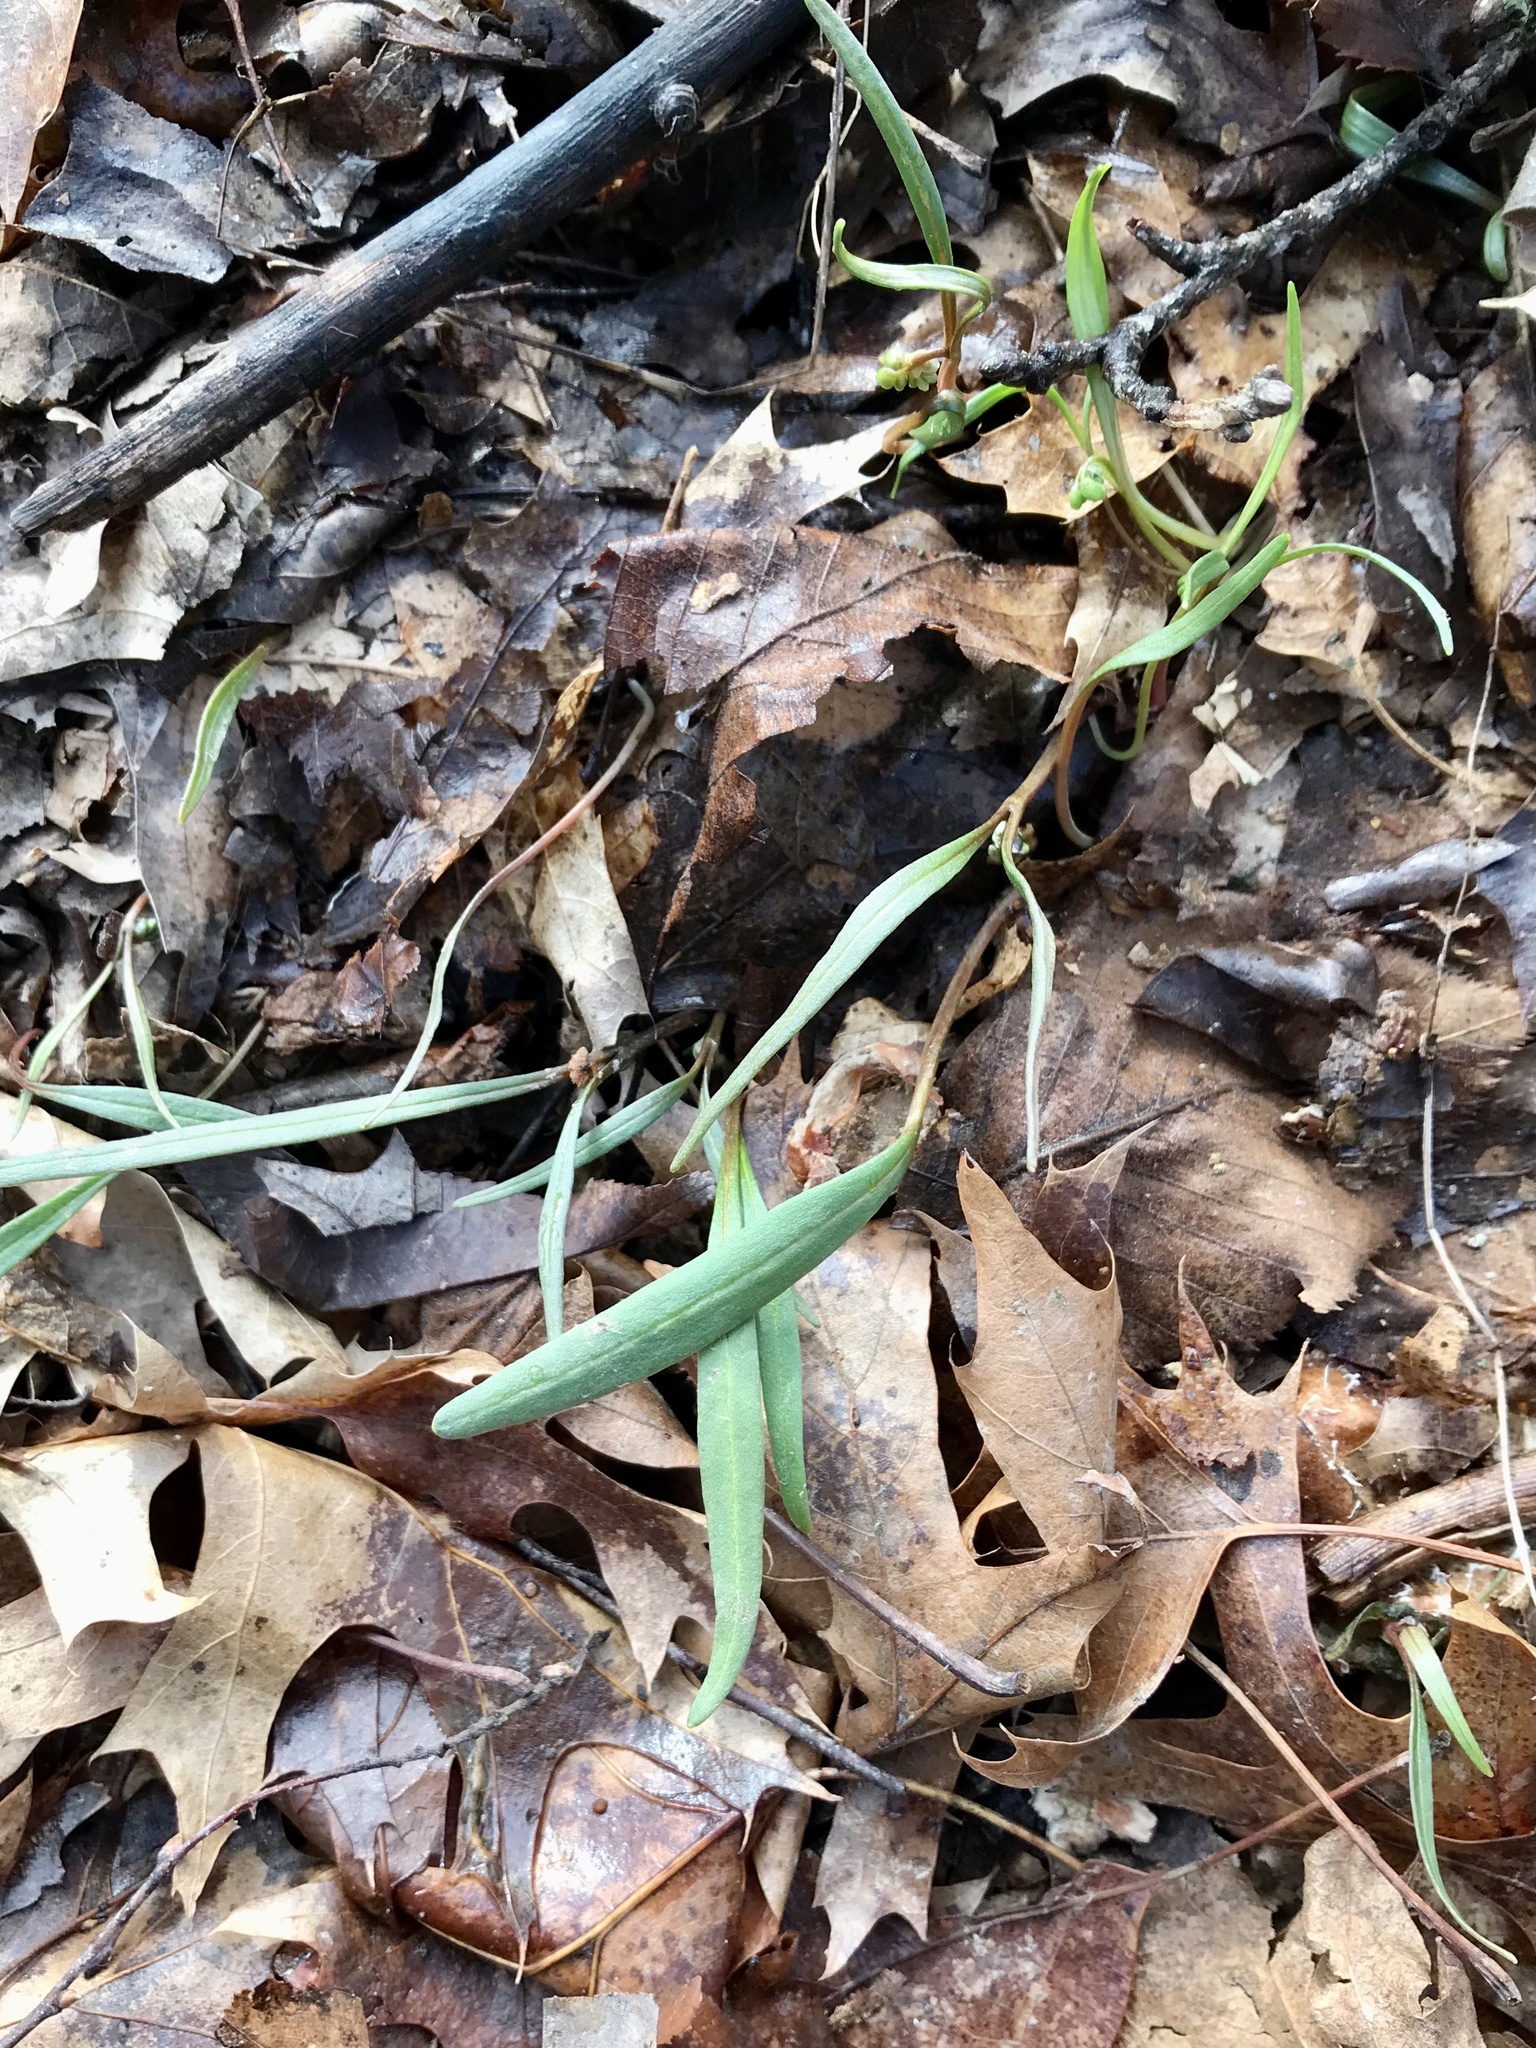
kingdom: Plantae
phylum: Tracheophyta
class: Magnoliopsida
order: Caryophyllales
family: Montiaceae
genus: Claytonia
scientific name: Claytonia virginica
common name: Virginia springbeauty
